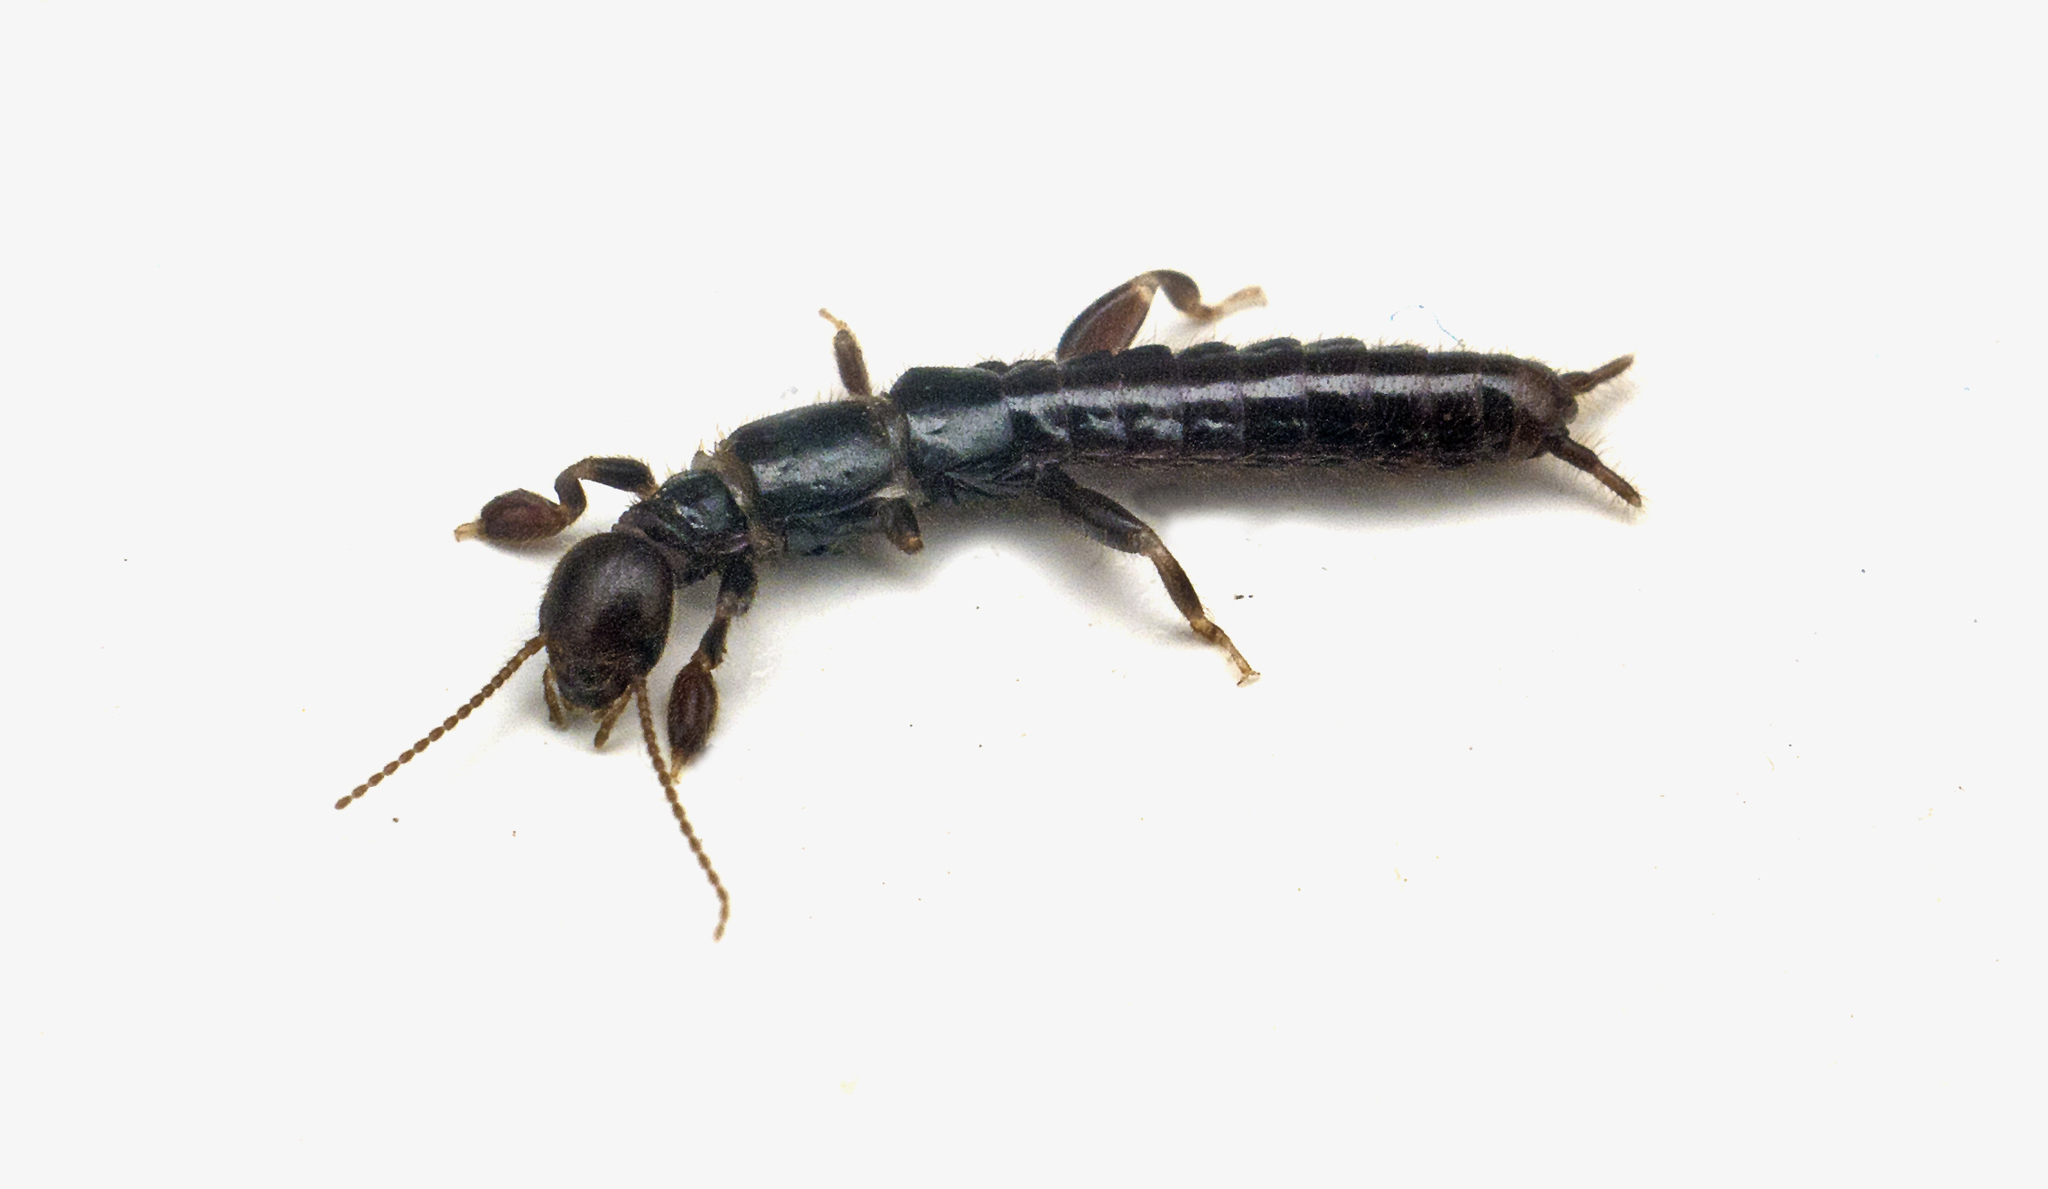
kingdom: Animalia
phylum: Arthropoda
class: Insecta
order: Embioptera
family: Notoligotomidae
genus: Notoligotoma
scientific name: Notoligotoma nitens
